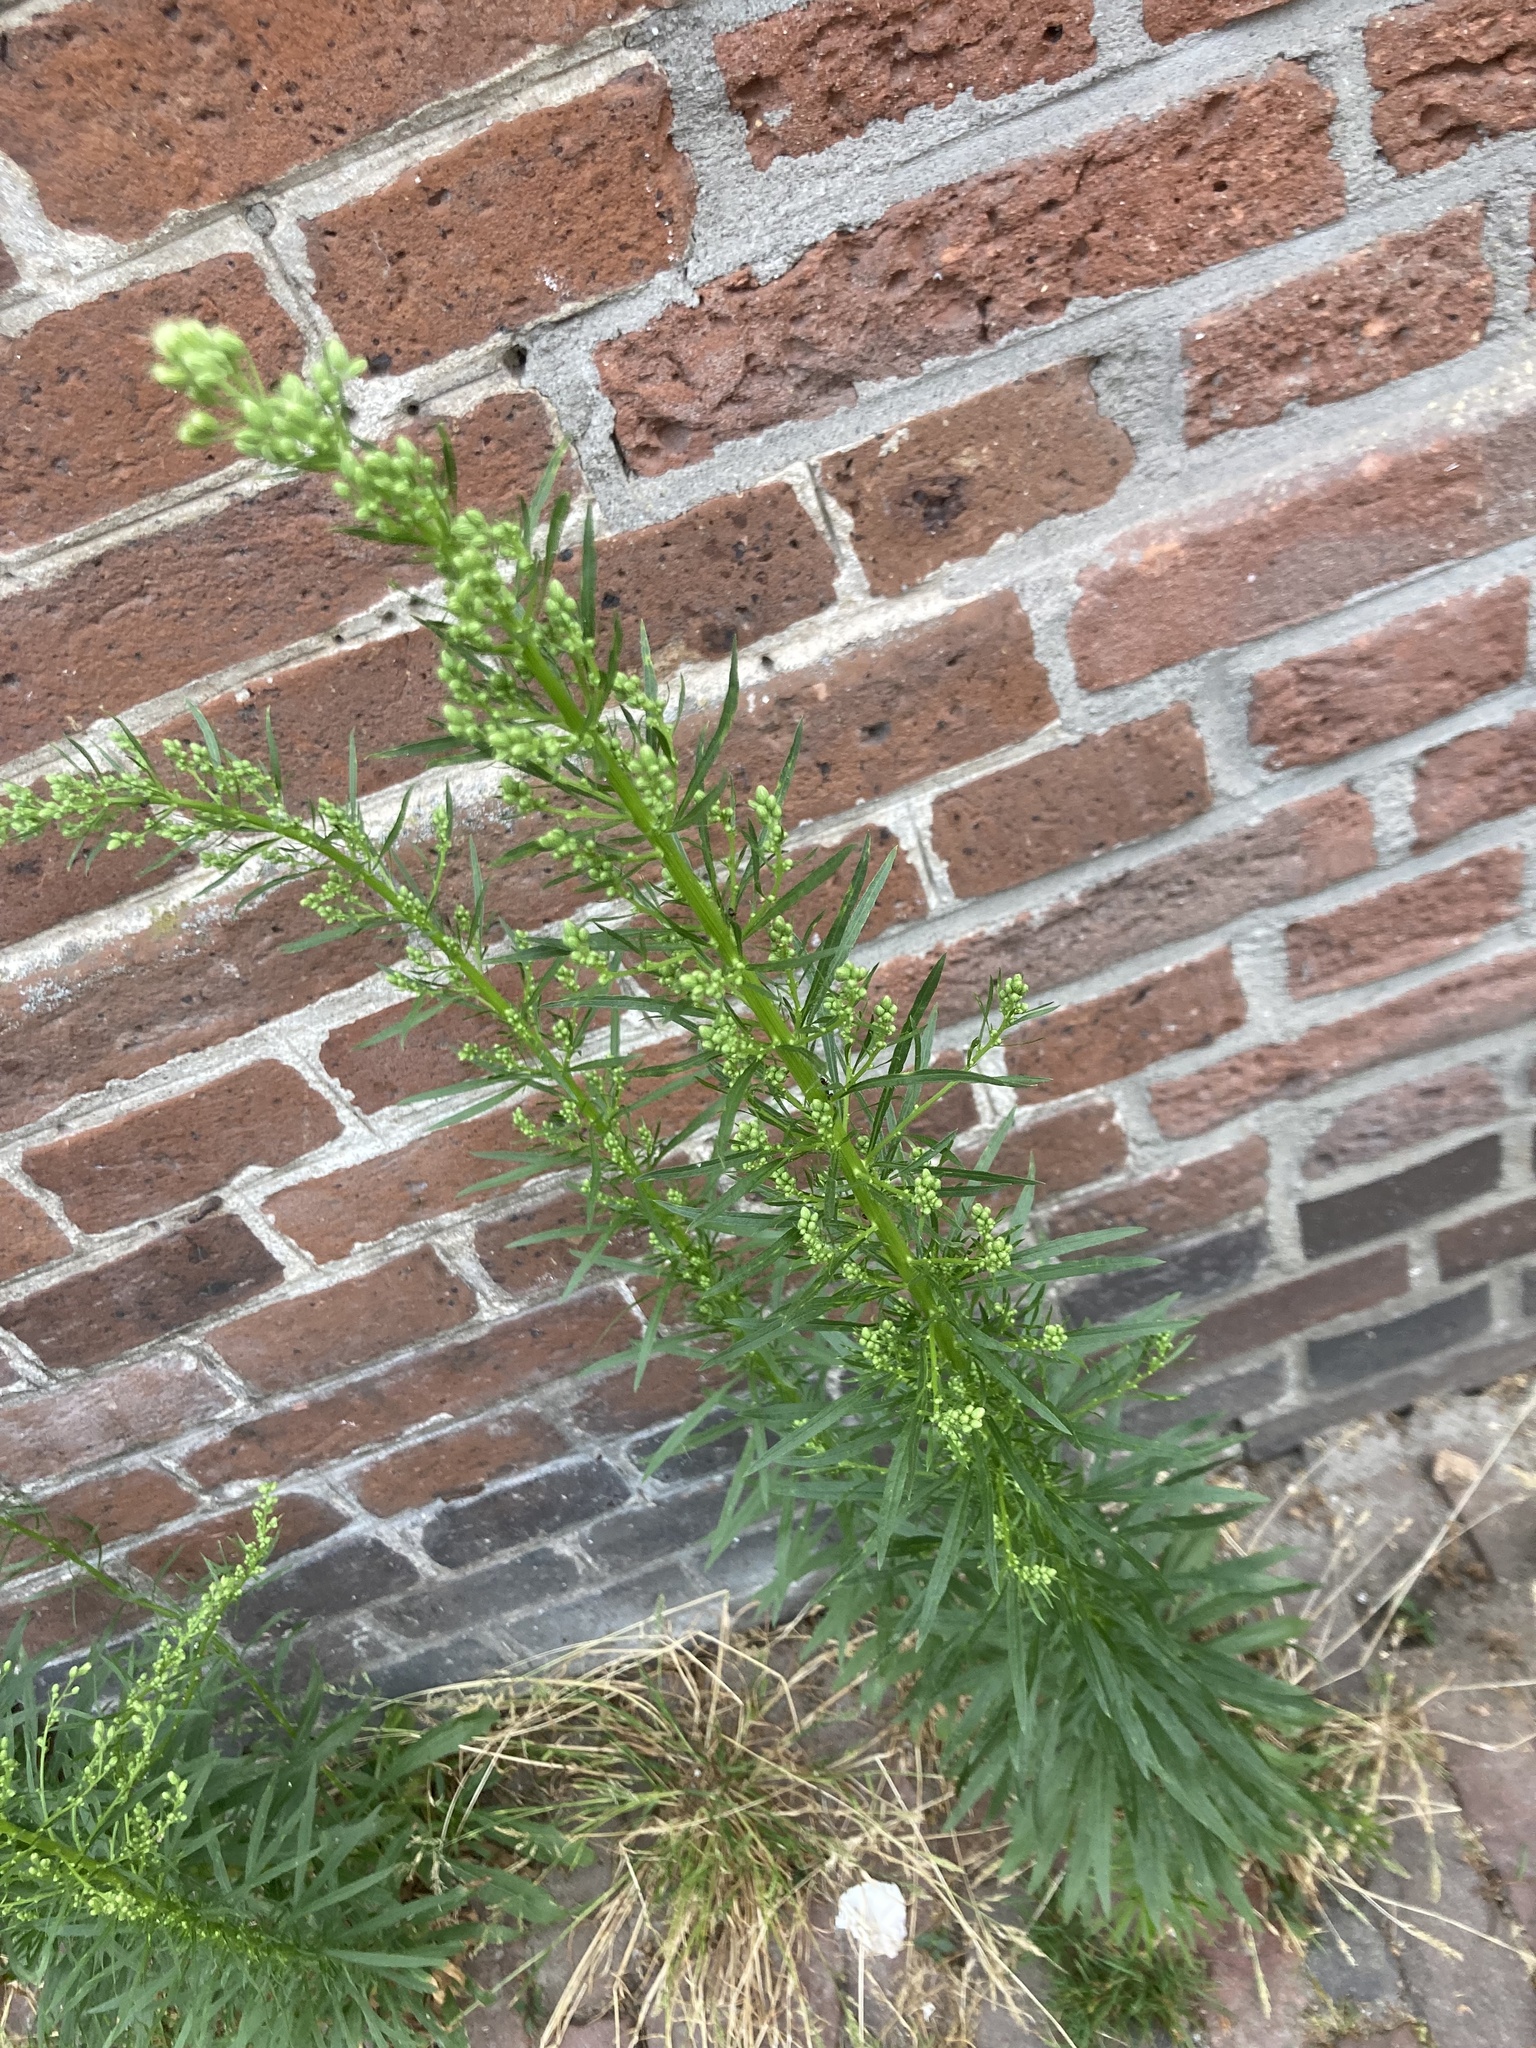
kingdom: Plantae
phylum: Tracheophyta
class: Magnoliopsida
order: Asterales
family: Asteraceae
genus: Erigeron
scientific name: Erigeron canadensis
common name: Canadian fleabane
